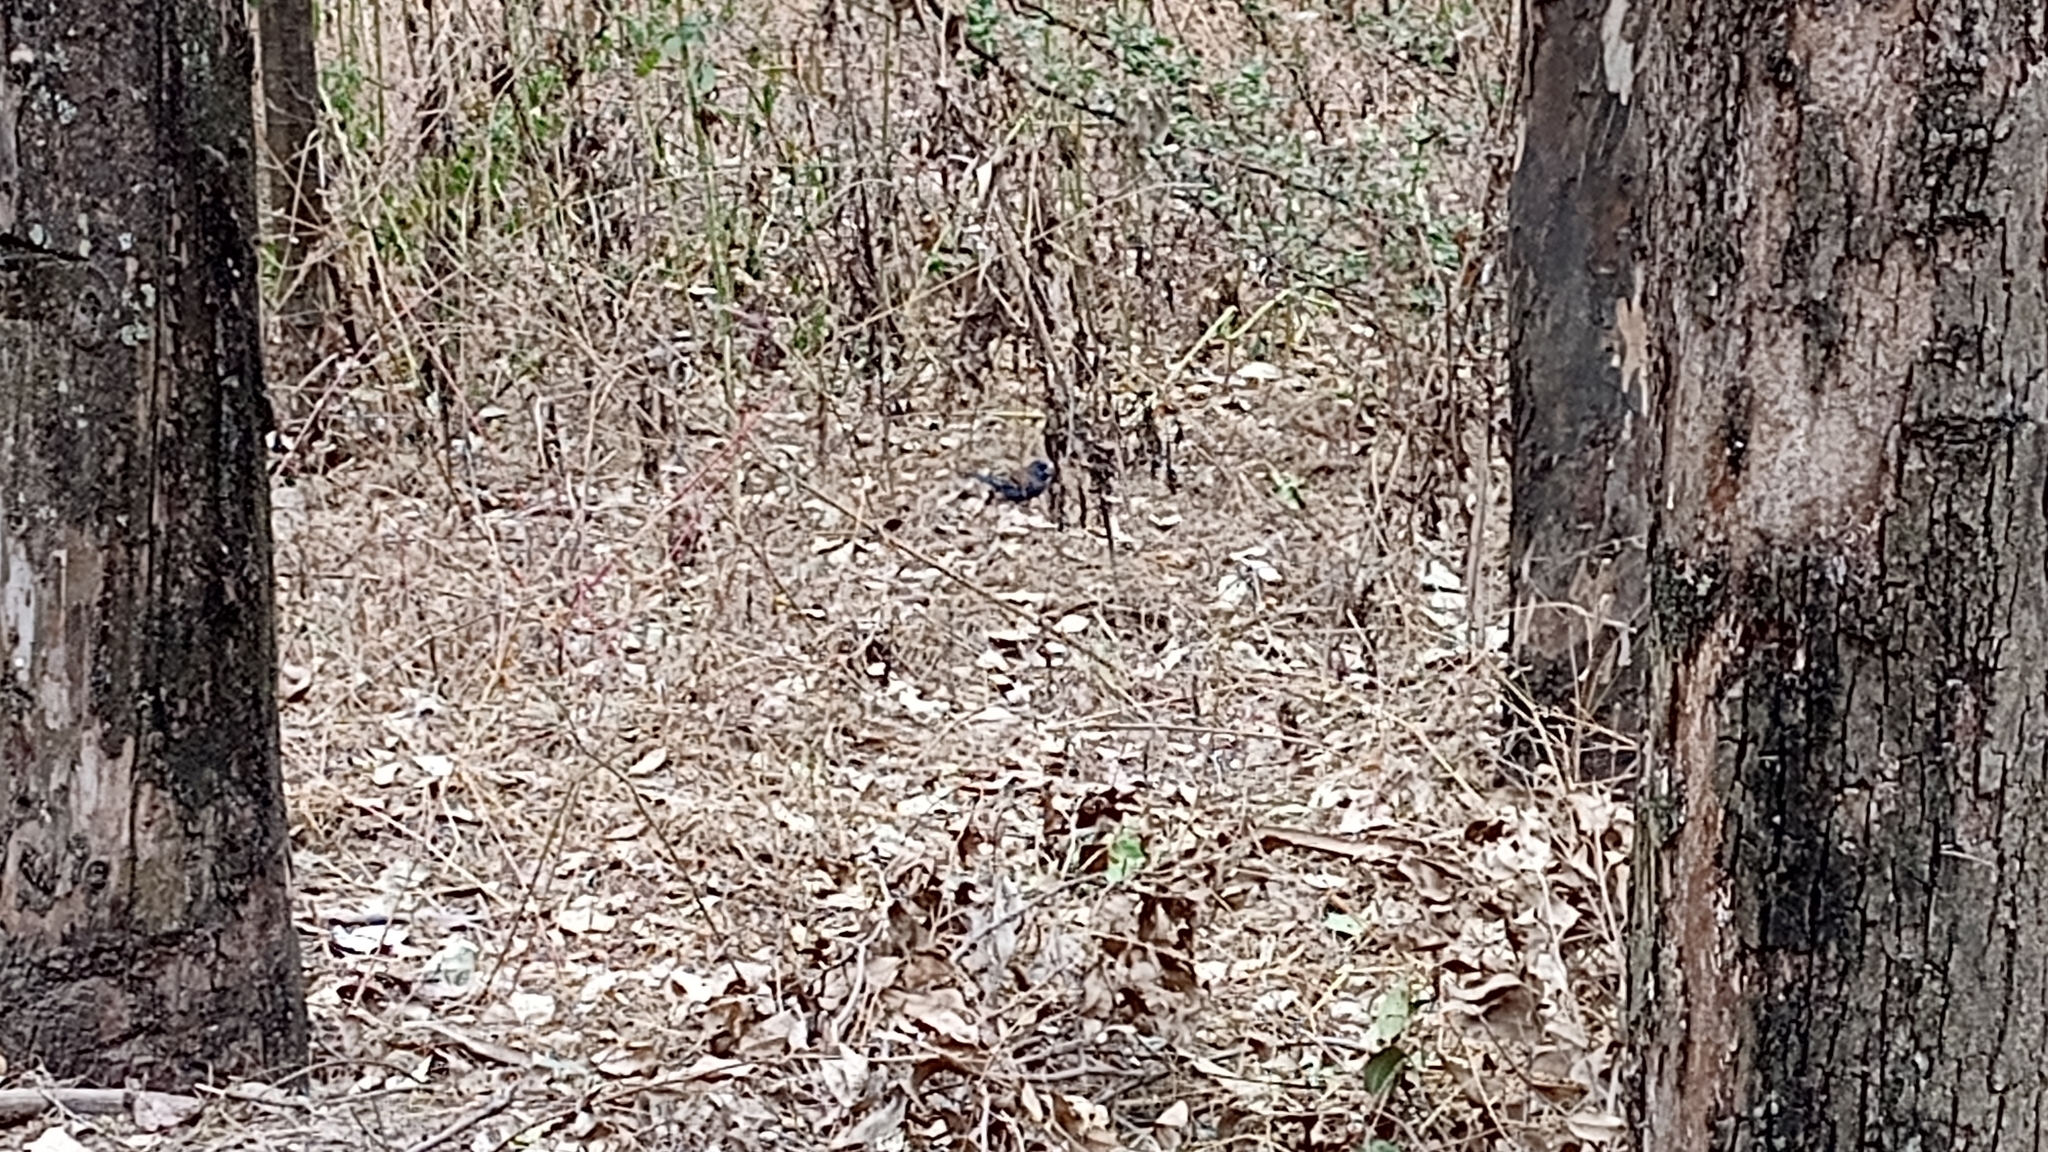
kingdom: Animalia
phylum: Chordata
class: Aves
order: Passeriformes
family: Cardinalidae
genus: Passerina
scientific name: Passerina caerulea
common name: Blue grosbeak
